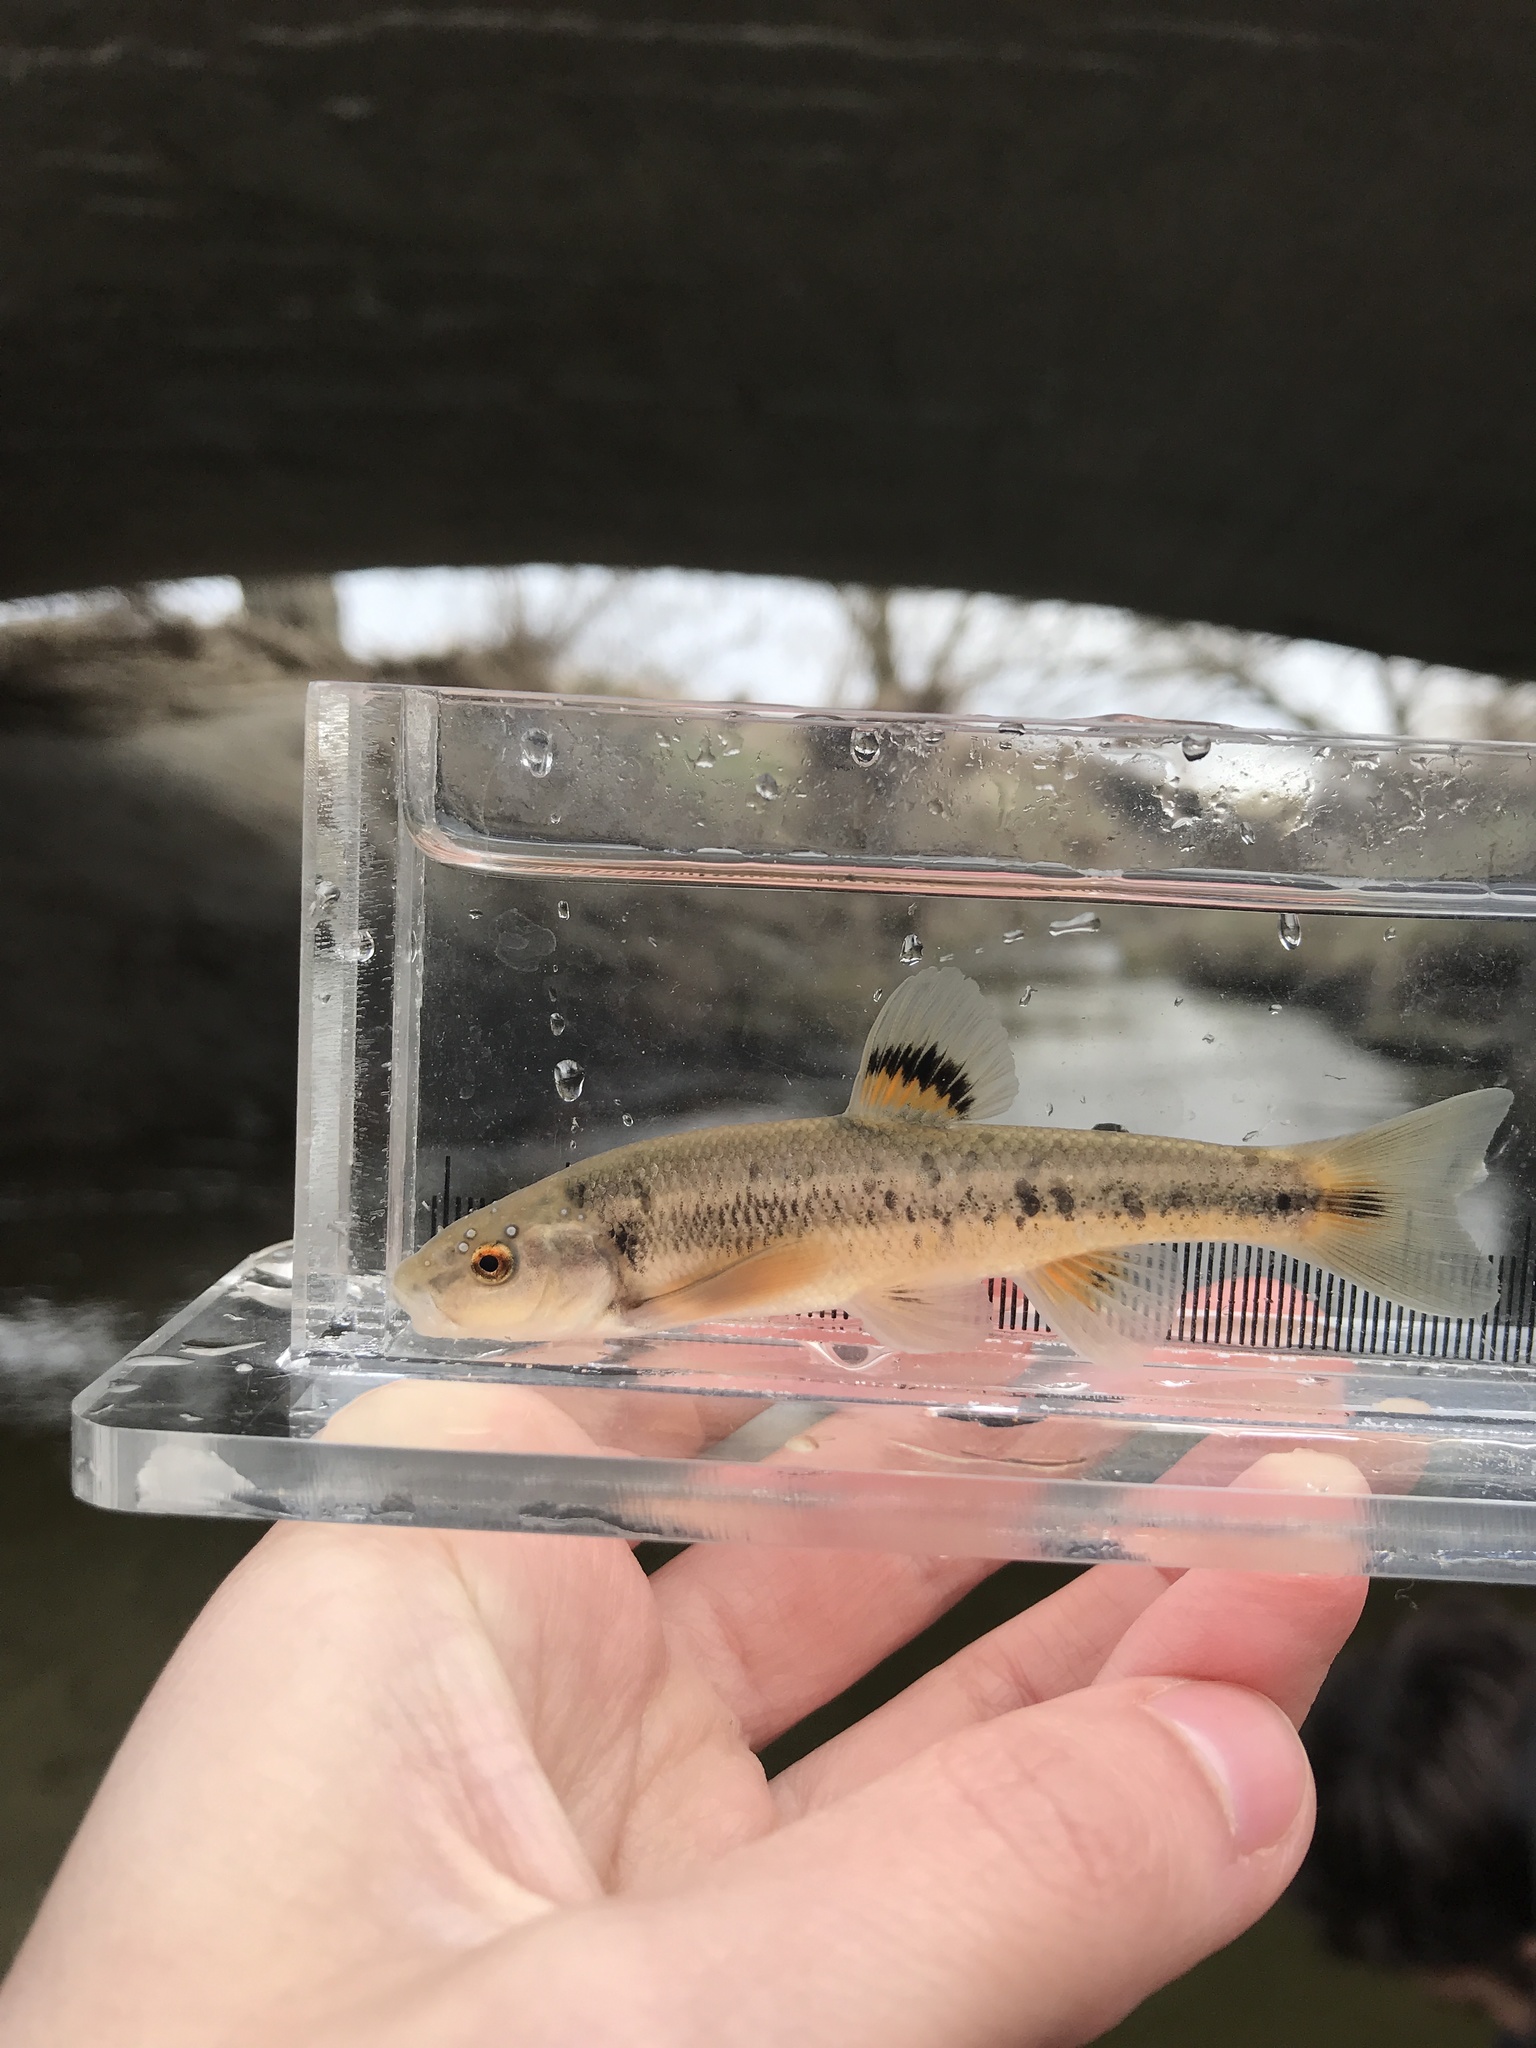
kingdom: Animalia
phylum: Chordata
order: Cypriniformes
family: Cyprinidae
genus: Campostoma
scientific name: Campostoma anomalum
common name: Central stoneroller
